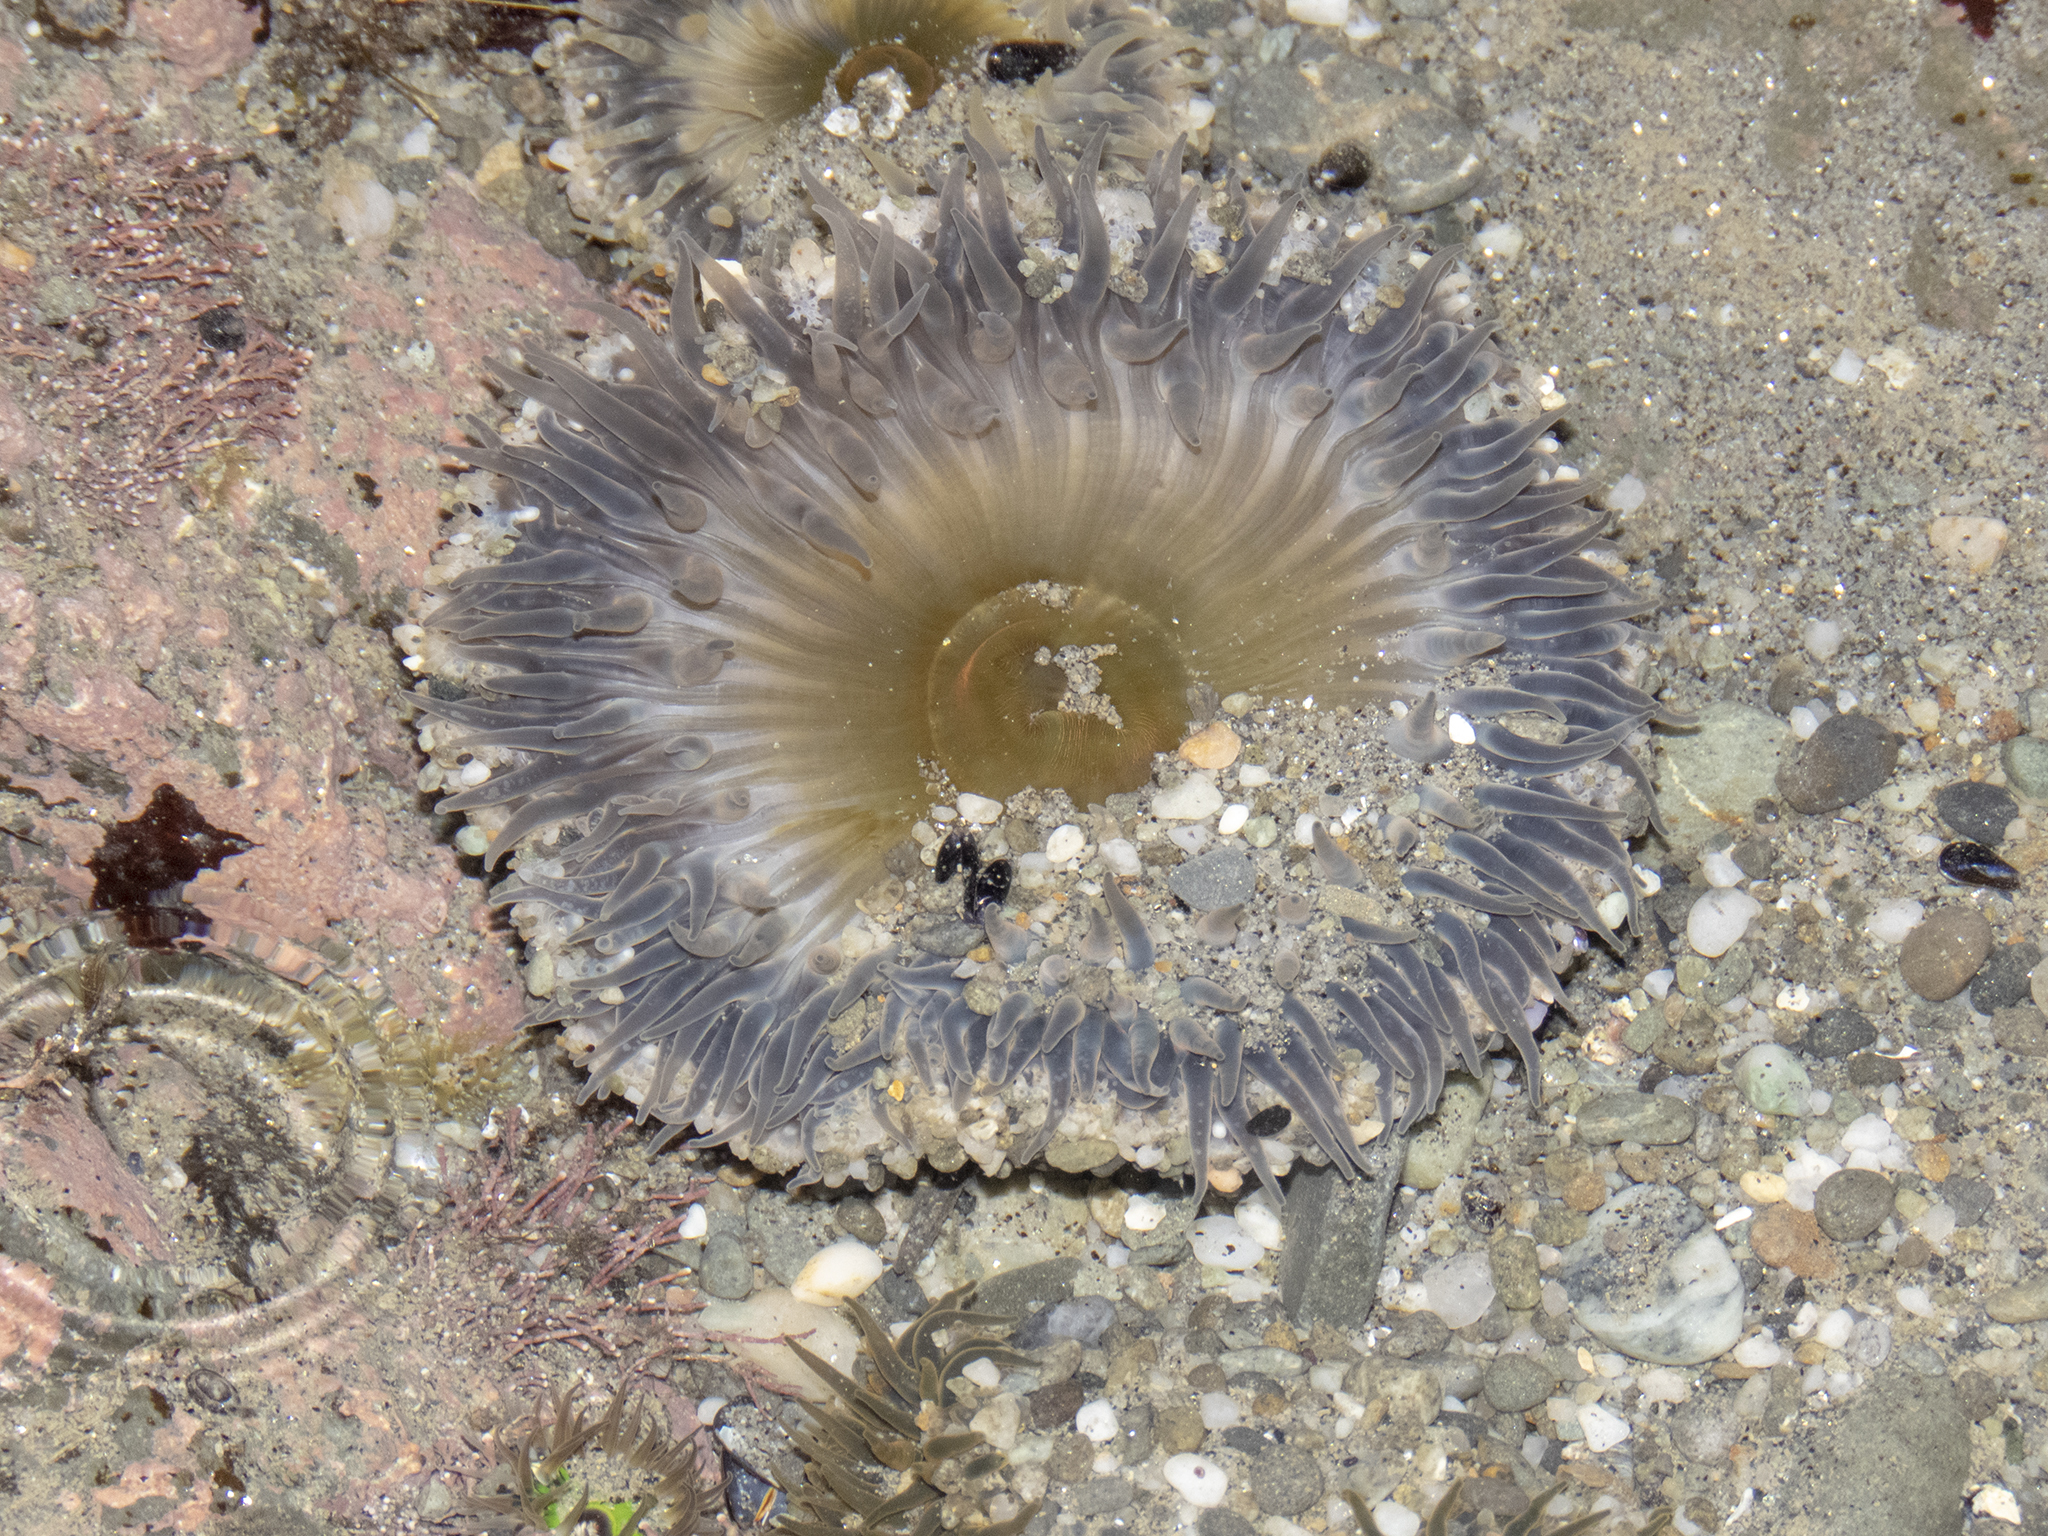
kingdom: Animalia
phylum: Cnidaria
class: Anthozoa
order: Actiniaria
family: Actiniidae
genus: Oulactis
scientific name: Oulactis magna
